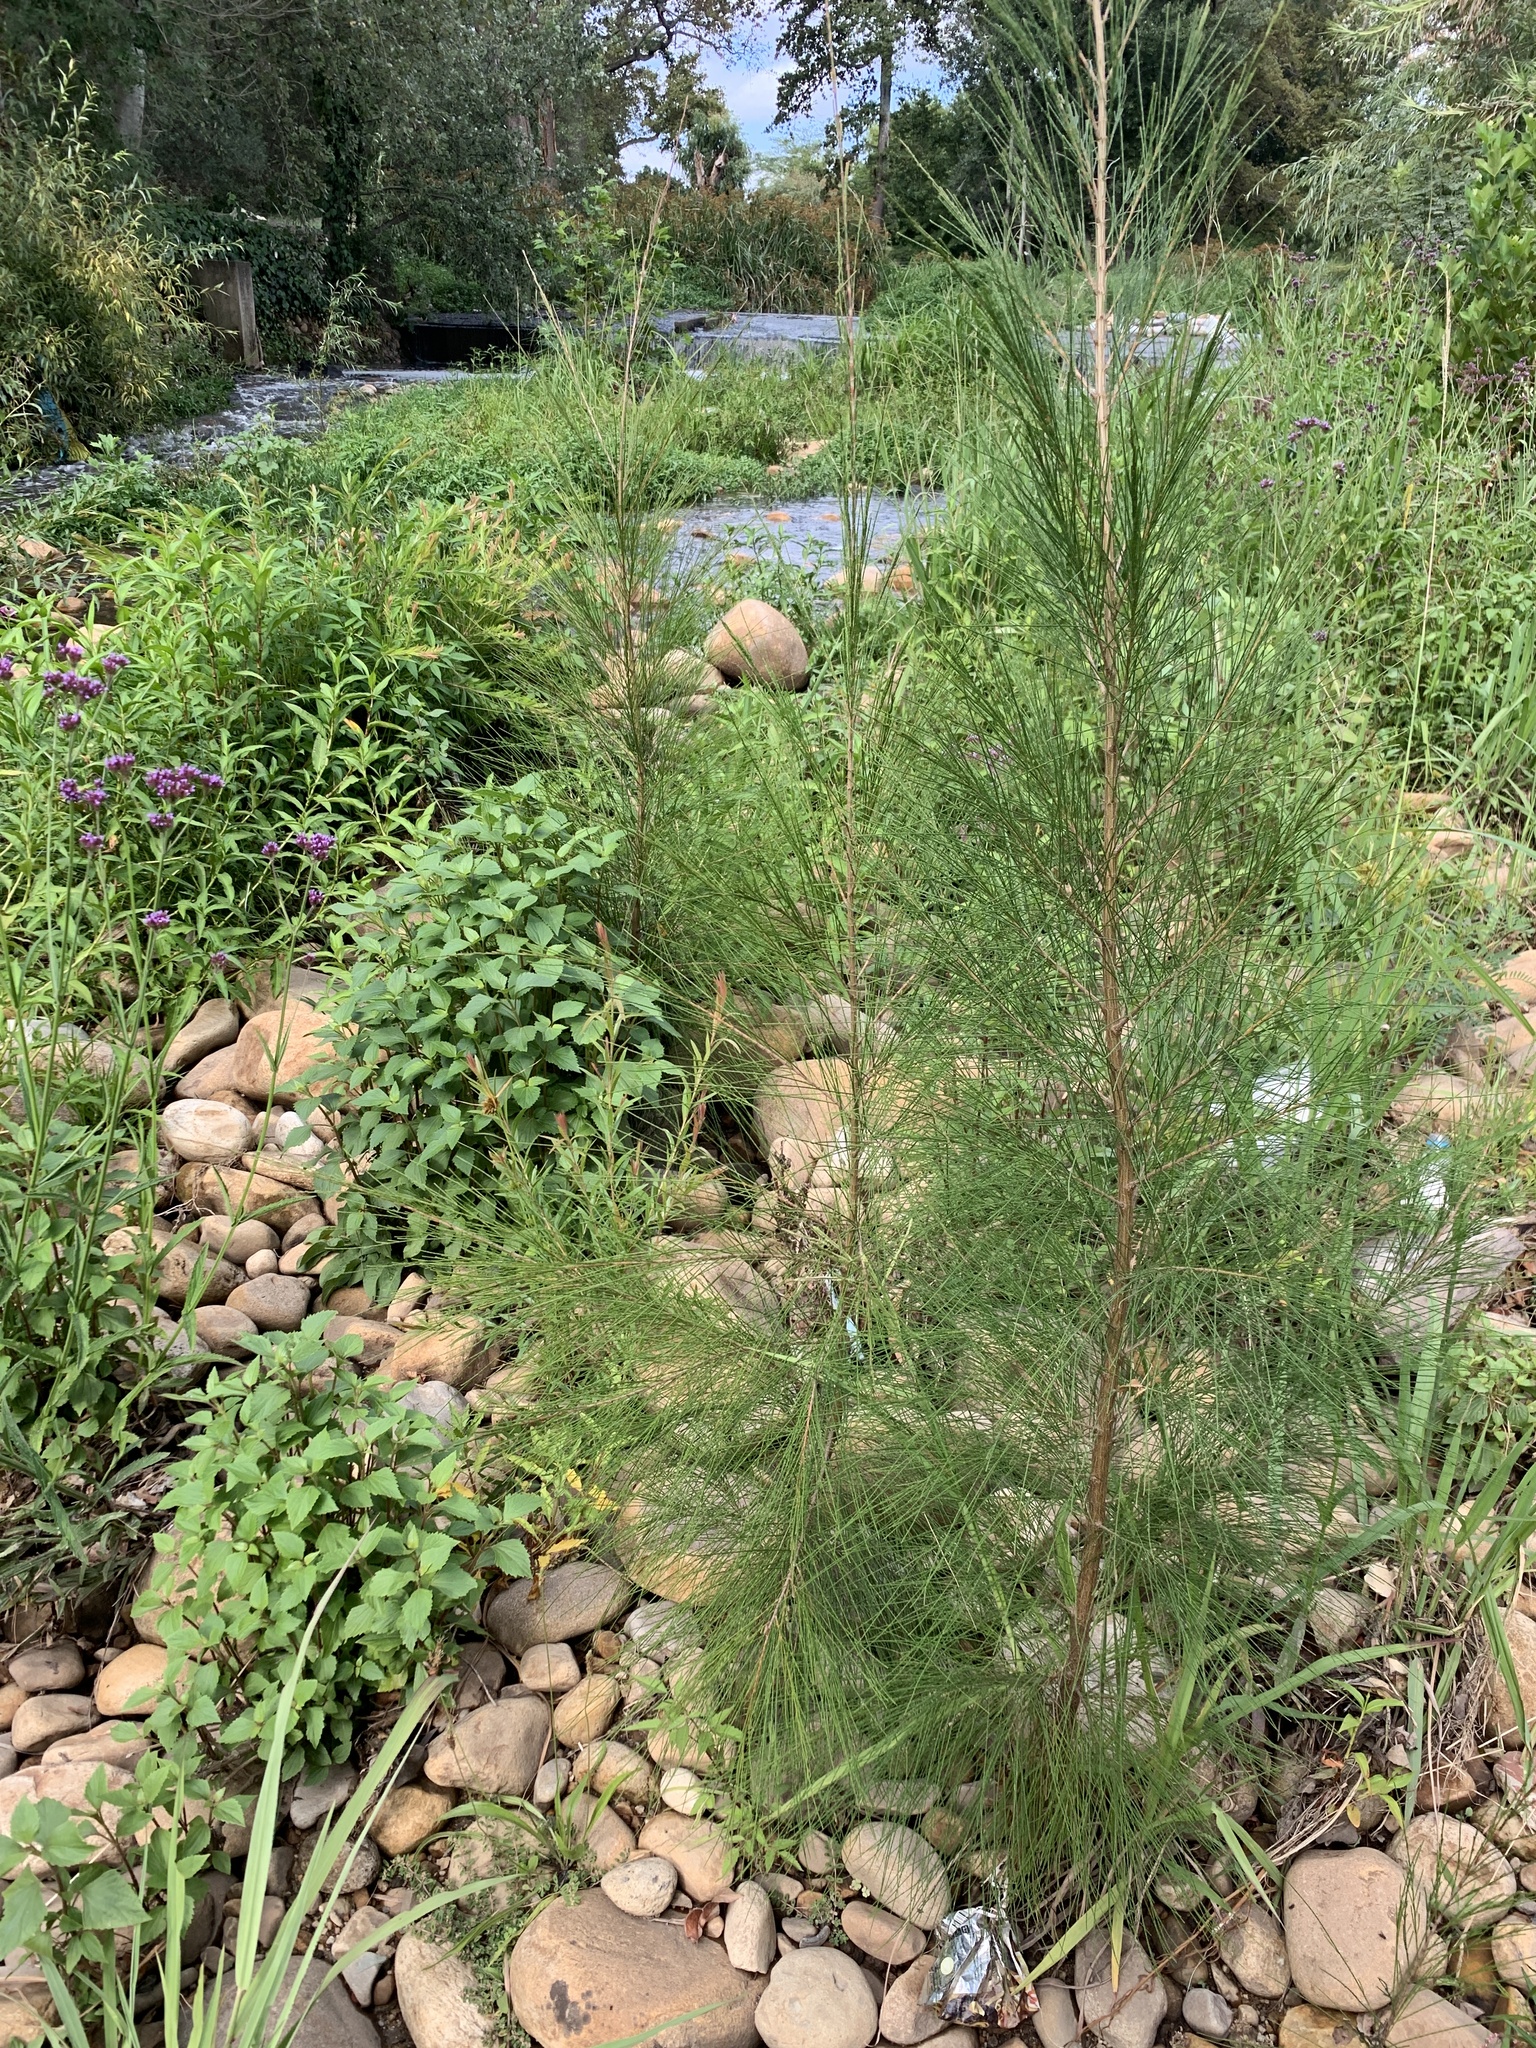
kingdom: Plantae
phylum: Tracheophyta
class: Magnoliopsida
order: Fagales
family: Casuarinaceae
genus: Casuarina
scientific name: Casuarina cunninghamiana
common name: River sheoak
